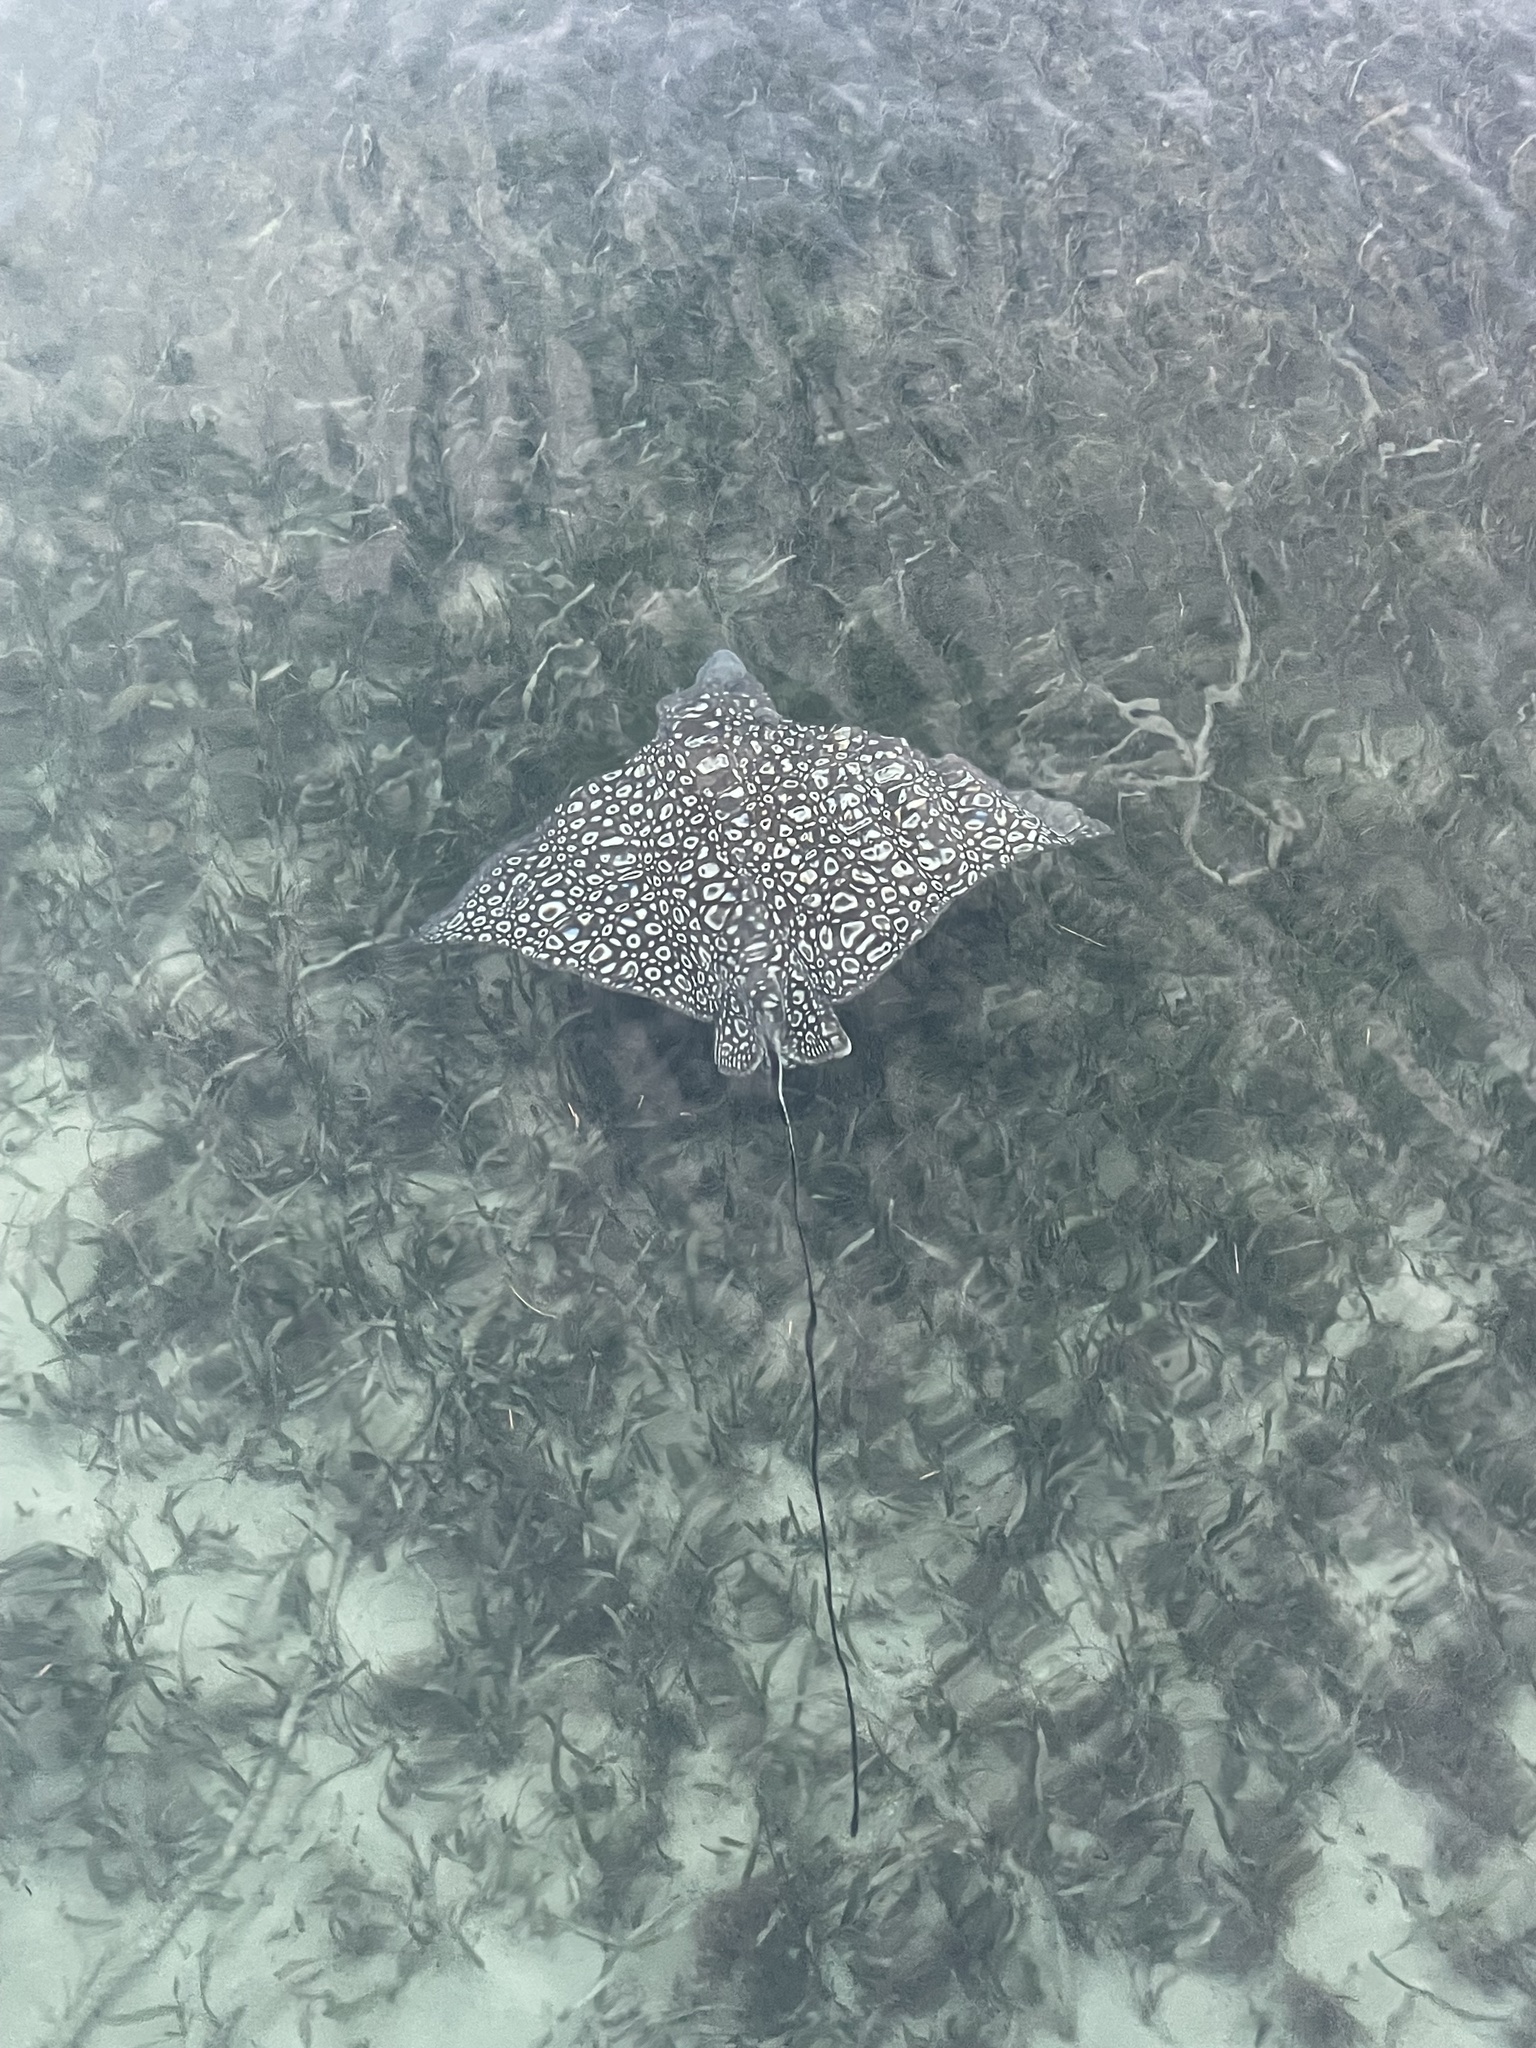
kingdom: Animalia
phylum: Chordata
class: Elasmobranchii
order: Myliobatiformes
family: Myliobatidae
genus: Aetobatus
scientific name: Aetobatus narinari
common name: Spotted eagle ray
